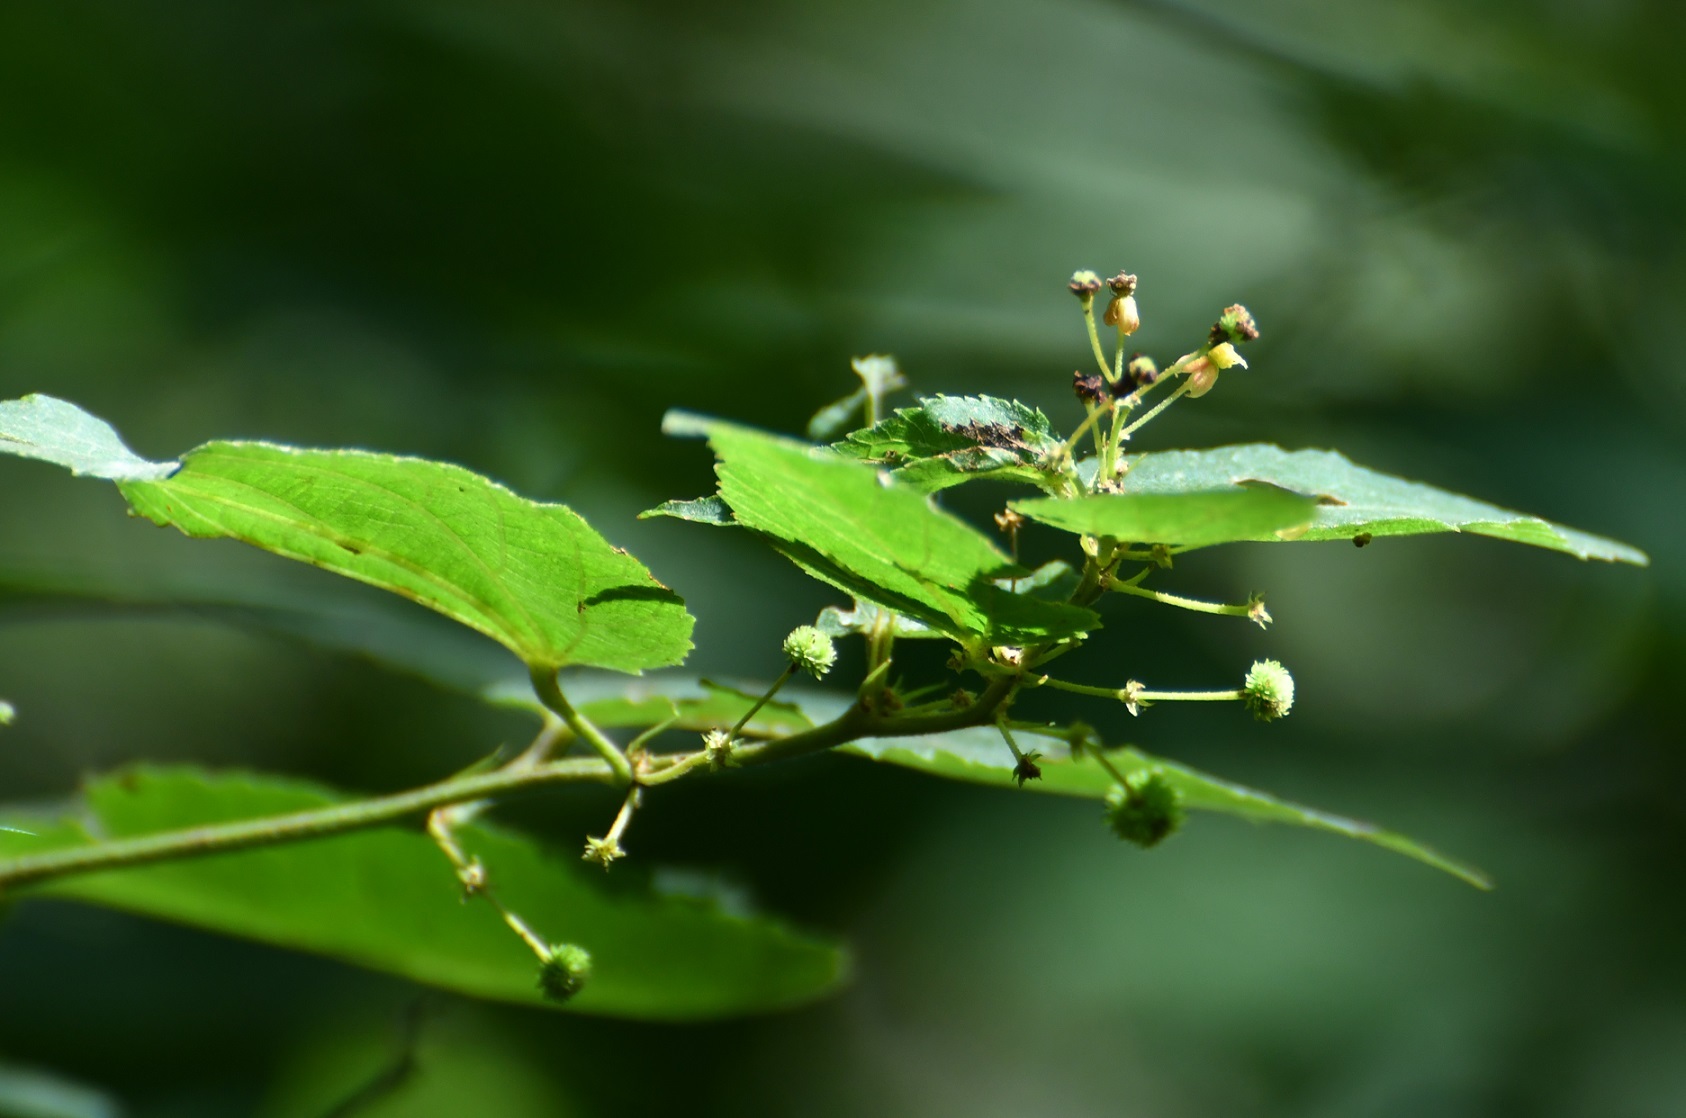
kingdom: Plantae
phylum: Tracheophyta
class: Magnoliopsida
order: Malvales
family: Malvaceae
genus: Ayenia
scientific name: Ayenia micrantha
